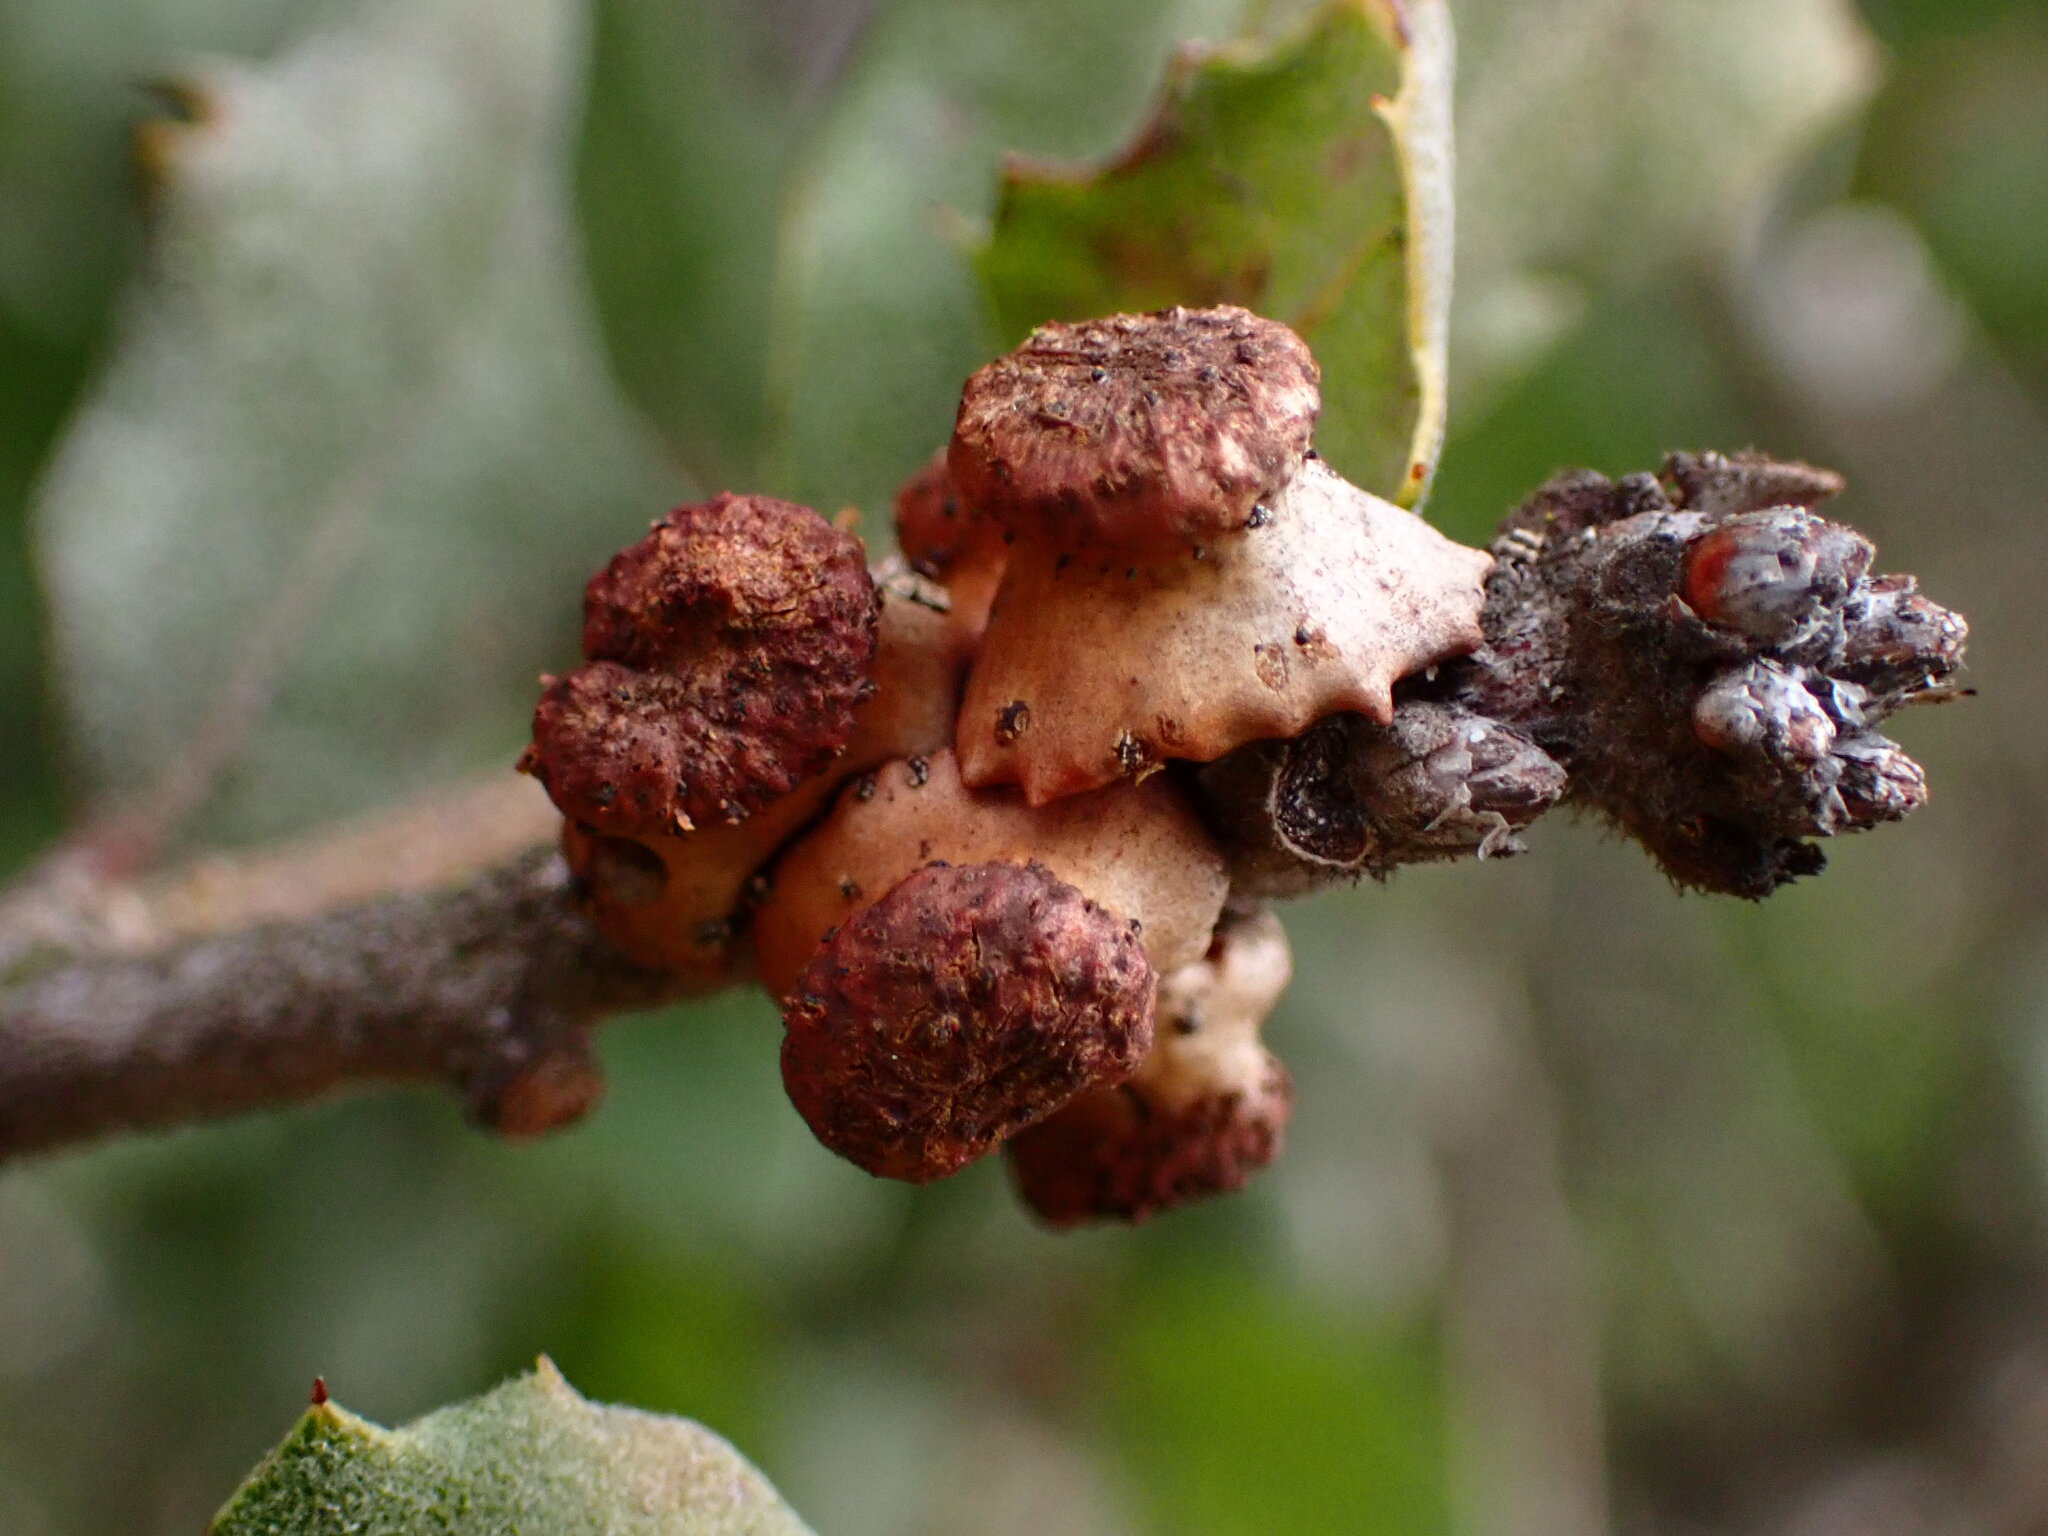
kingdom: Animalia
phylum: Arthropoda
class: Insecta
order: Hymenoptera
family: Cynipidae
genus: Disholcaspis
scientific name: Disholcaspis prehensa
